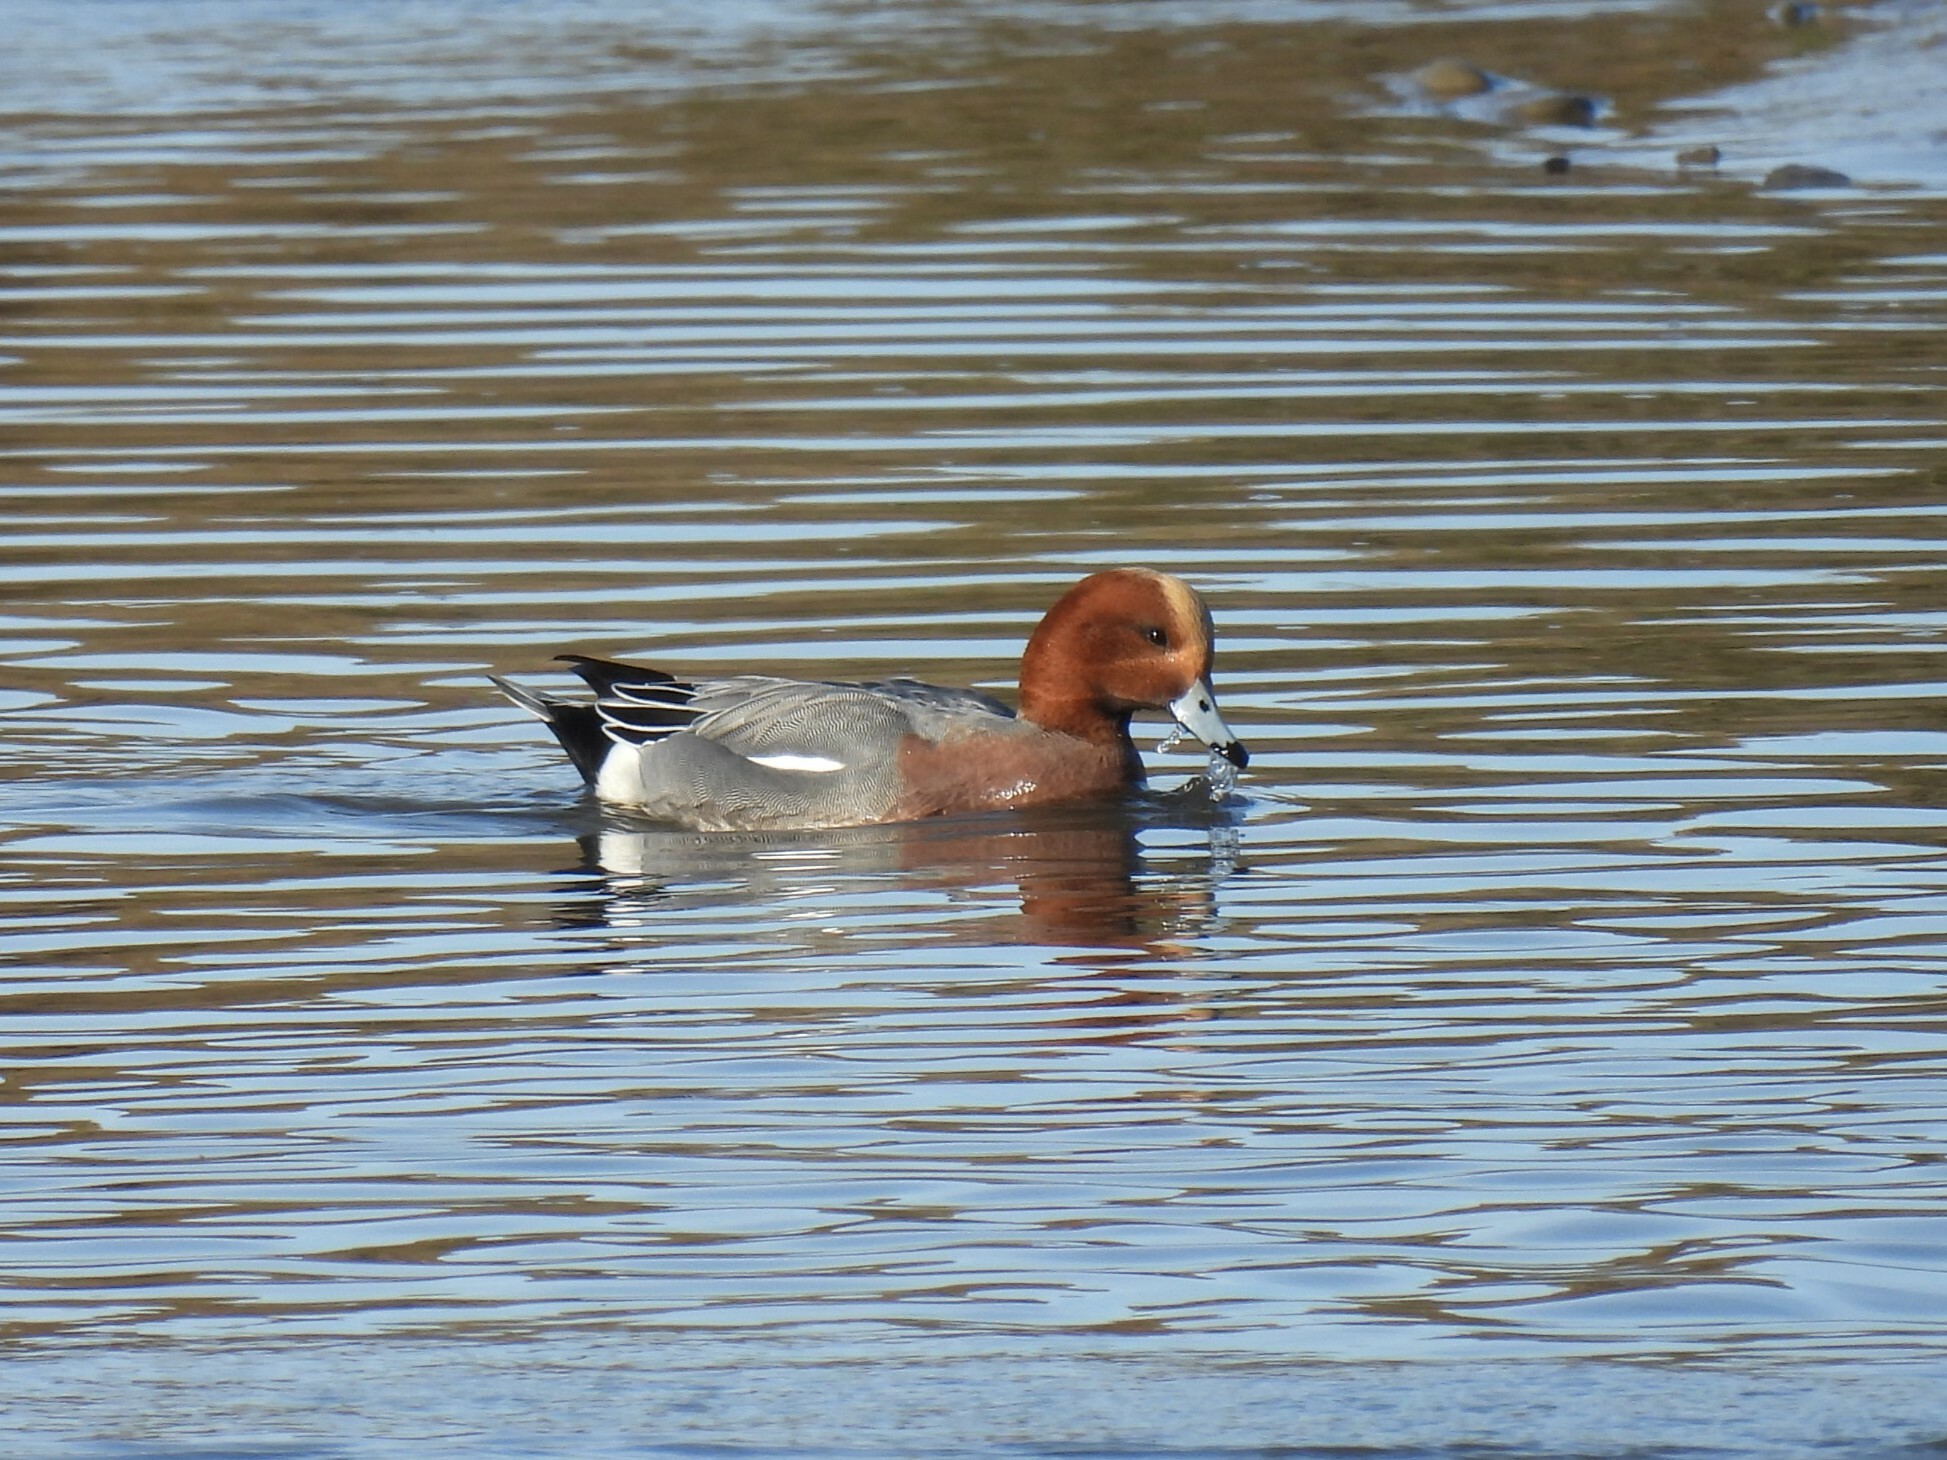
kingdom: Animalia
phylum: Chordata
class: Aves
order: Anseriformes
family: Anatidae
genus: Mareca
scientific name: Mareca penelope
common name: Eurasian wigeon
